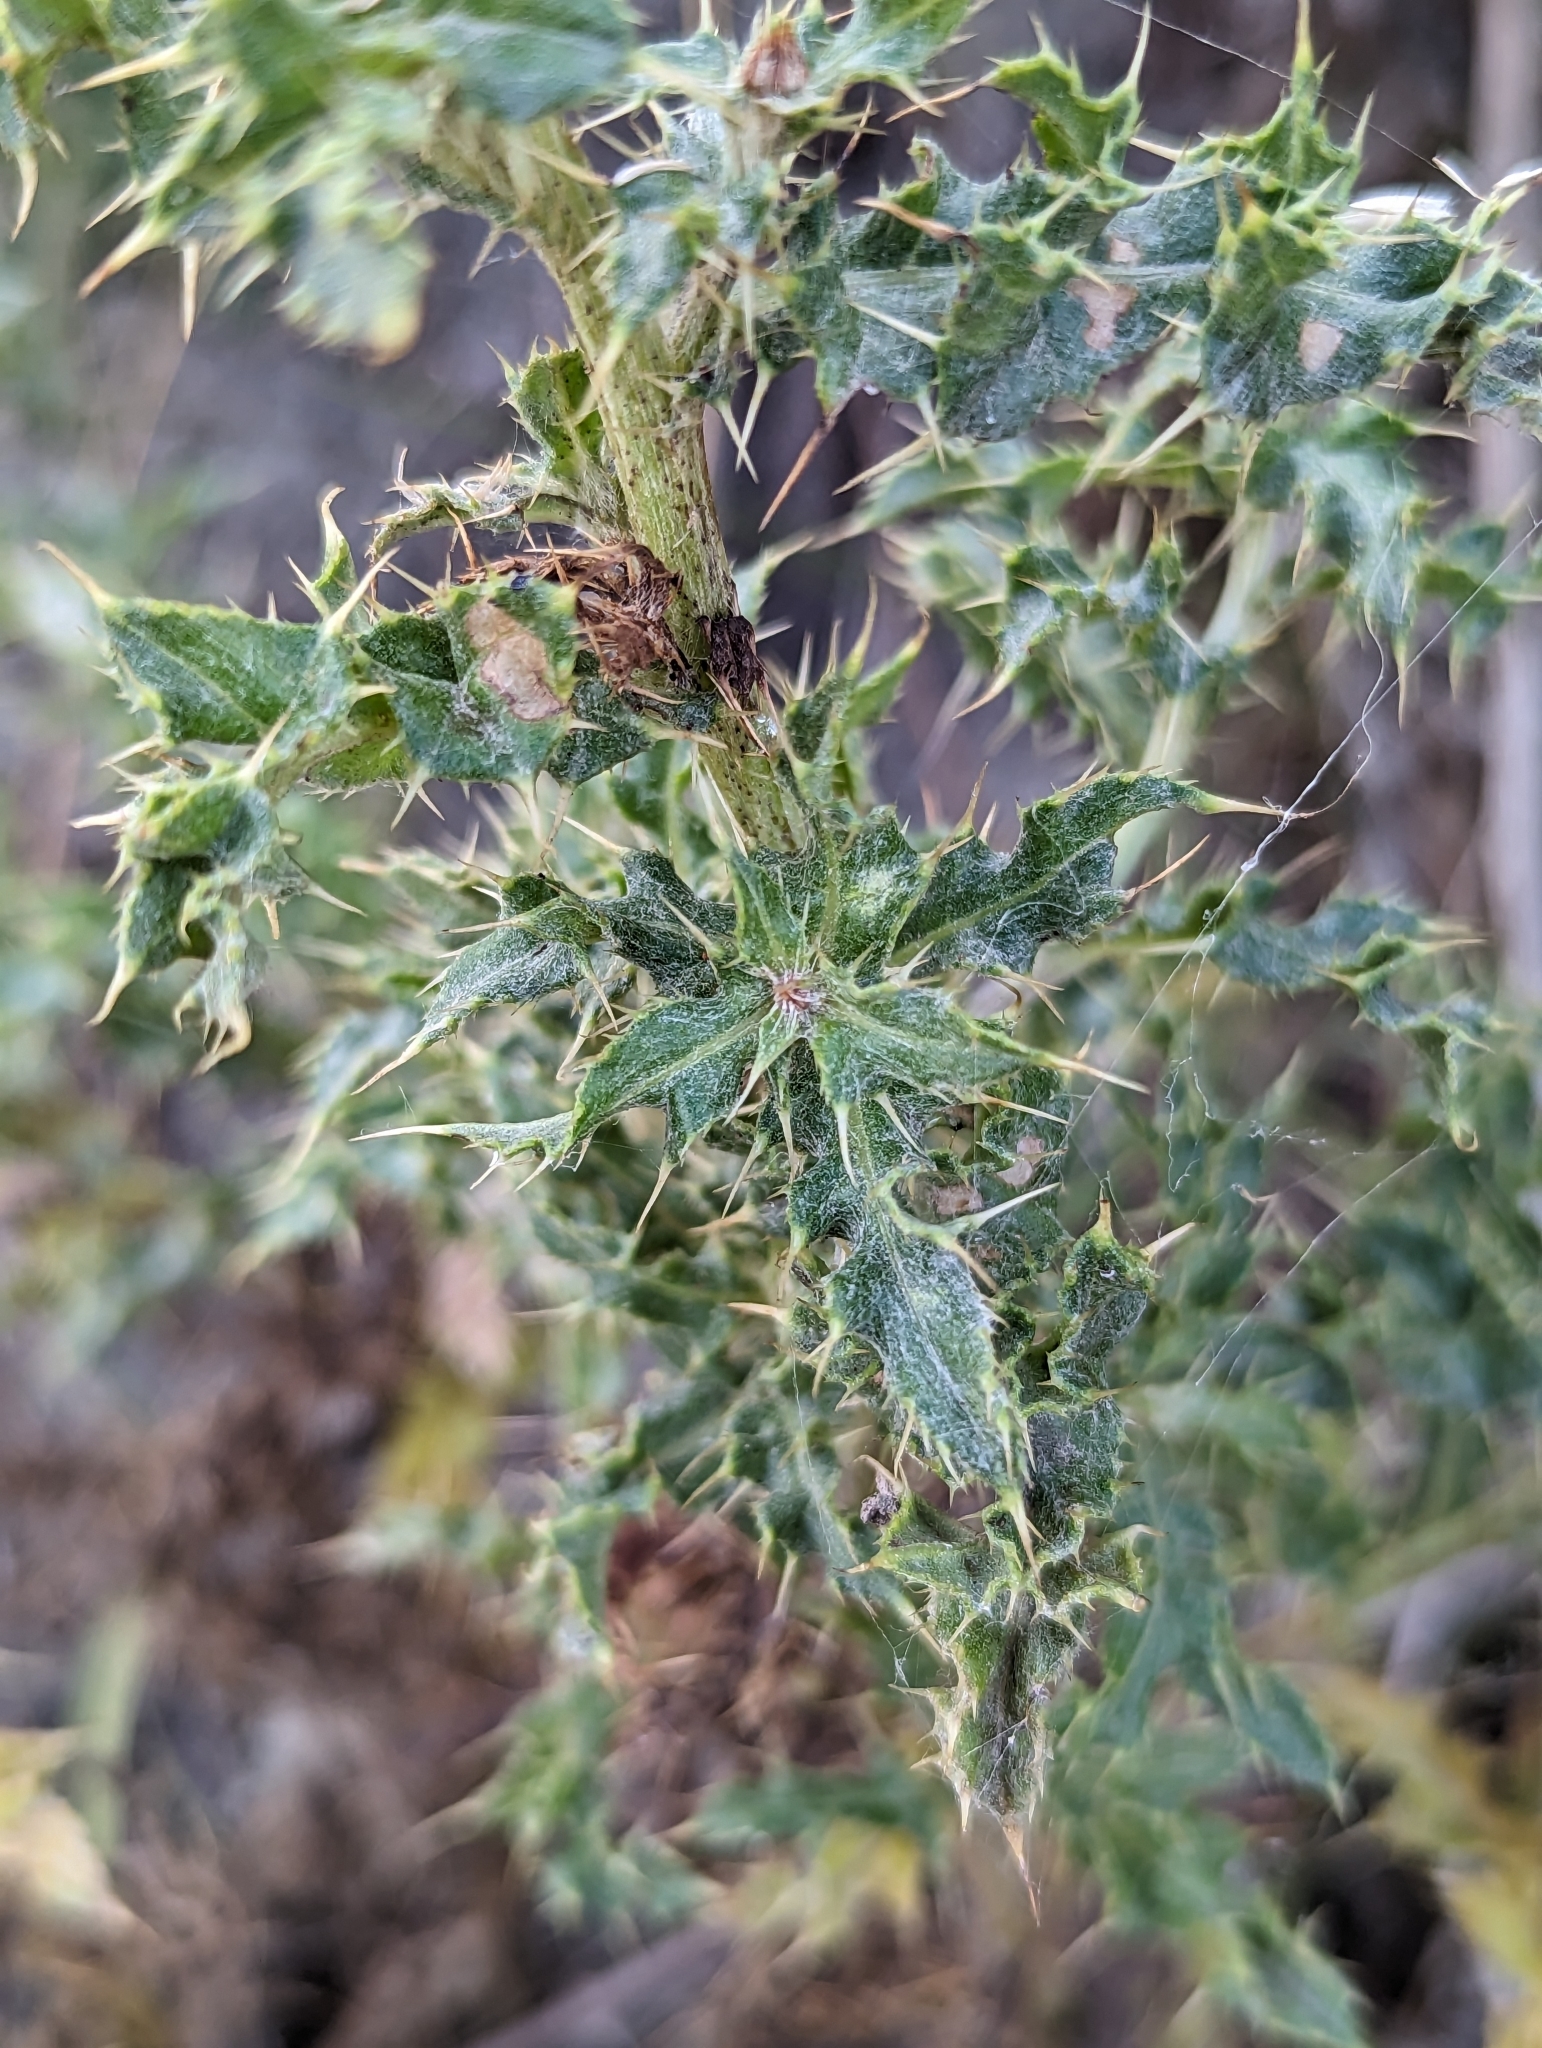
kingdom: Plantae
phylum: Tracheophyta
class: Magnoliopsida
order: Asterales
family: Asteraceae
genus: Cirsium
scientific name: Cirsium arvense
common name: Creeping thistle
